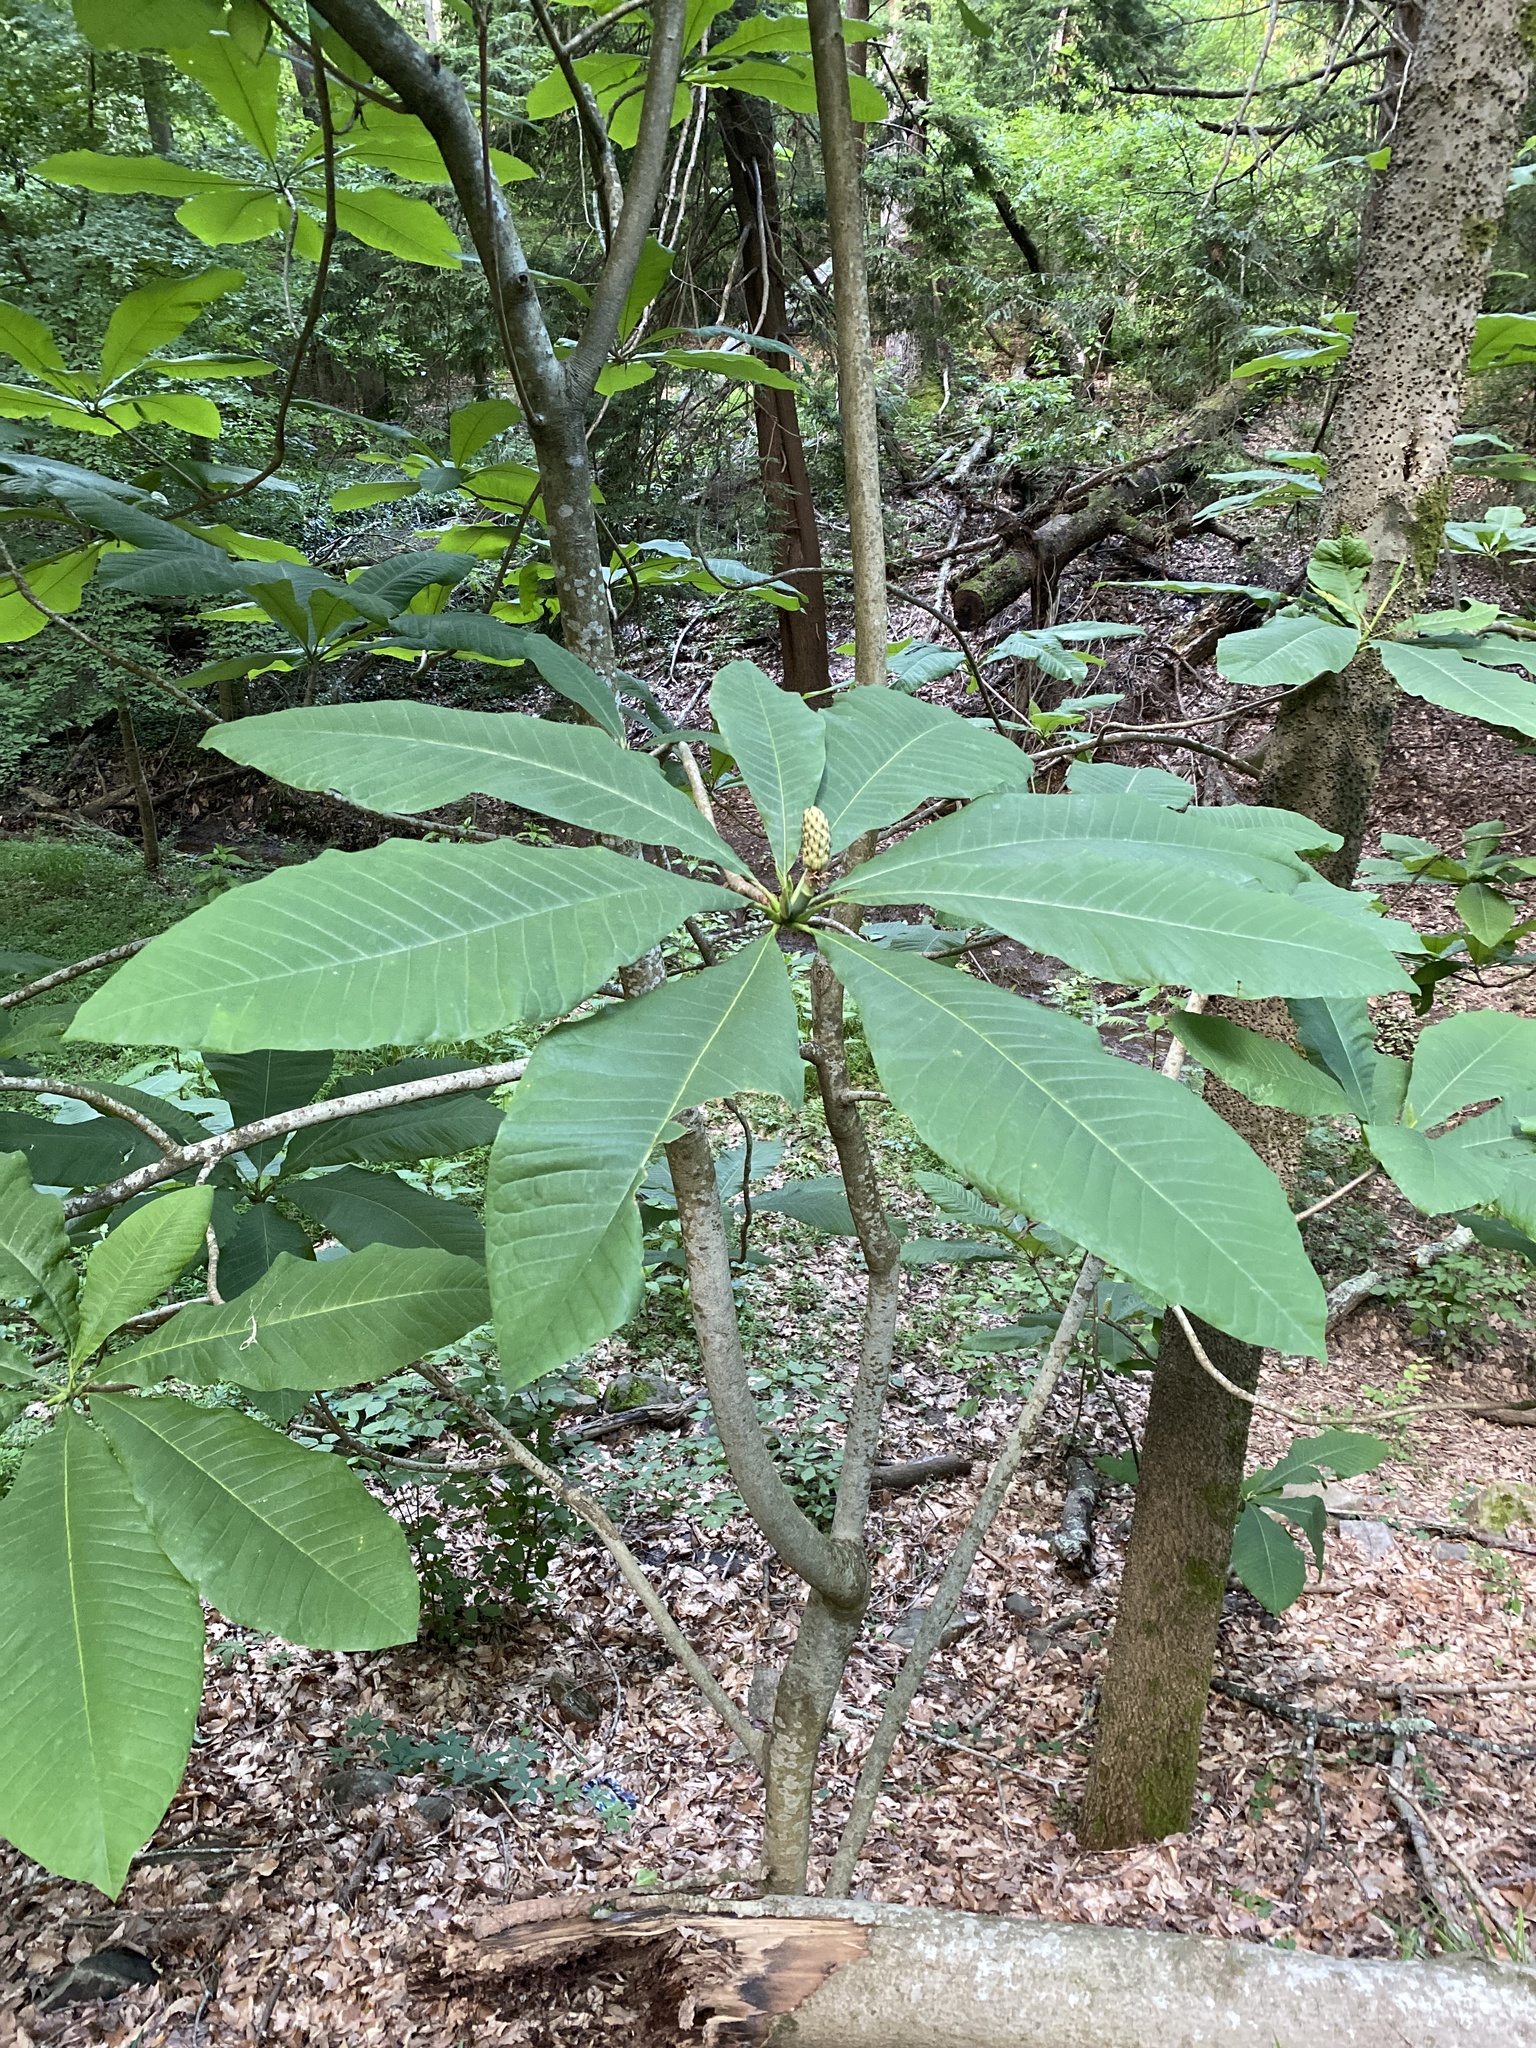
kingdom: Plantae
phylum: Tracheophyta
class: Magnoliopsida
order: Magnoliales
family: Magnoliaceae
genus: Magnolia
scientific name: Magnolia tripetala
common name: Umbrella magnolia
